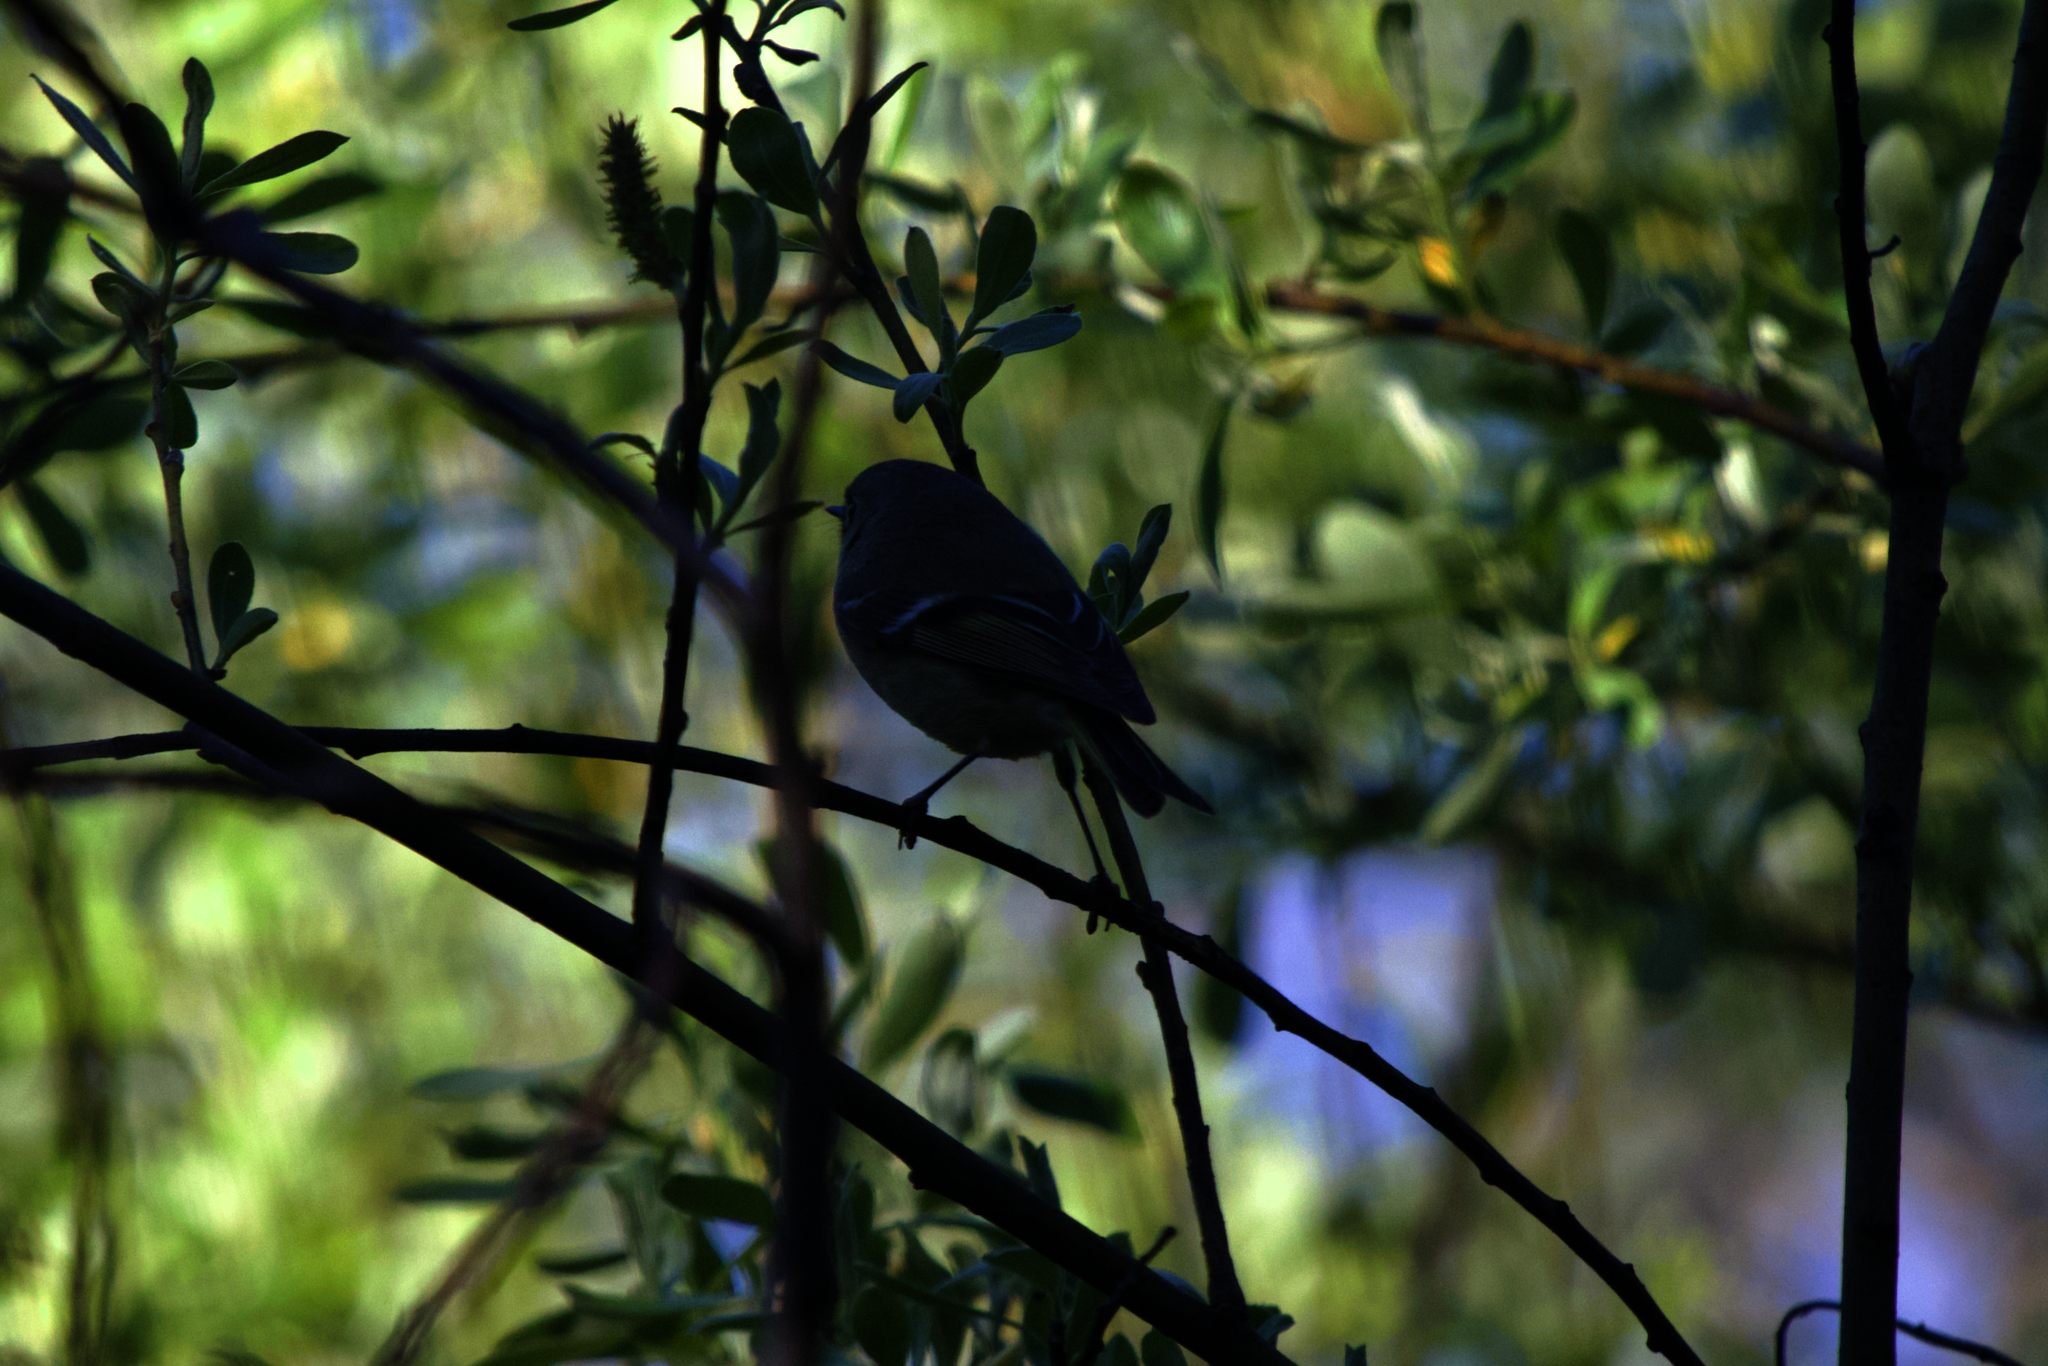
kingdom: Animalia
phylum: Chordata
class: Aves
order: Passeriformes
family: Regulidae
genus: Regulus
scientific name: Regulus calendula
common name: Ruby-crowned kinglet
